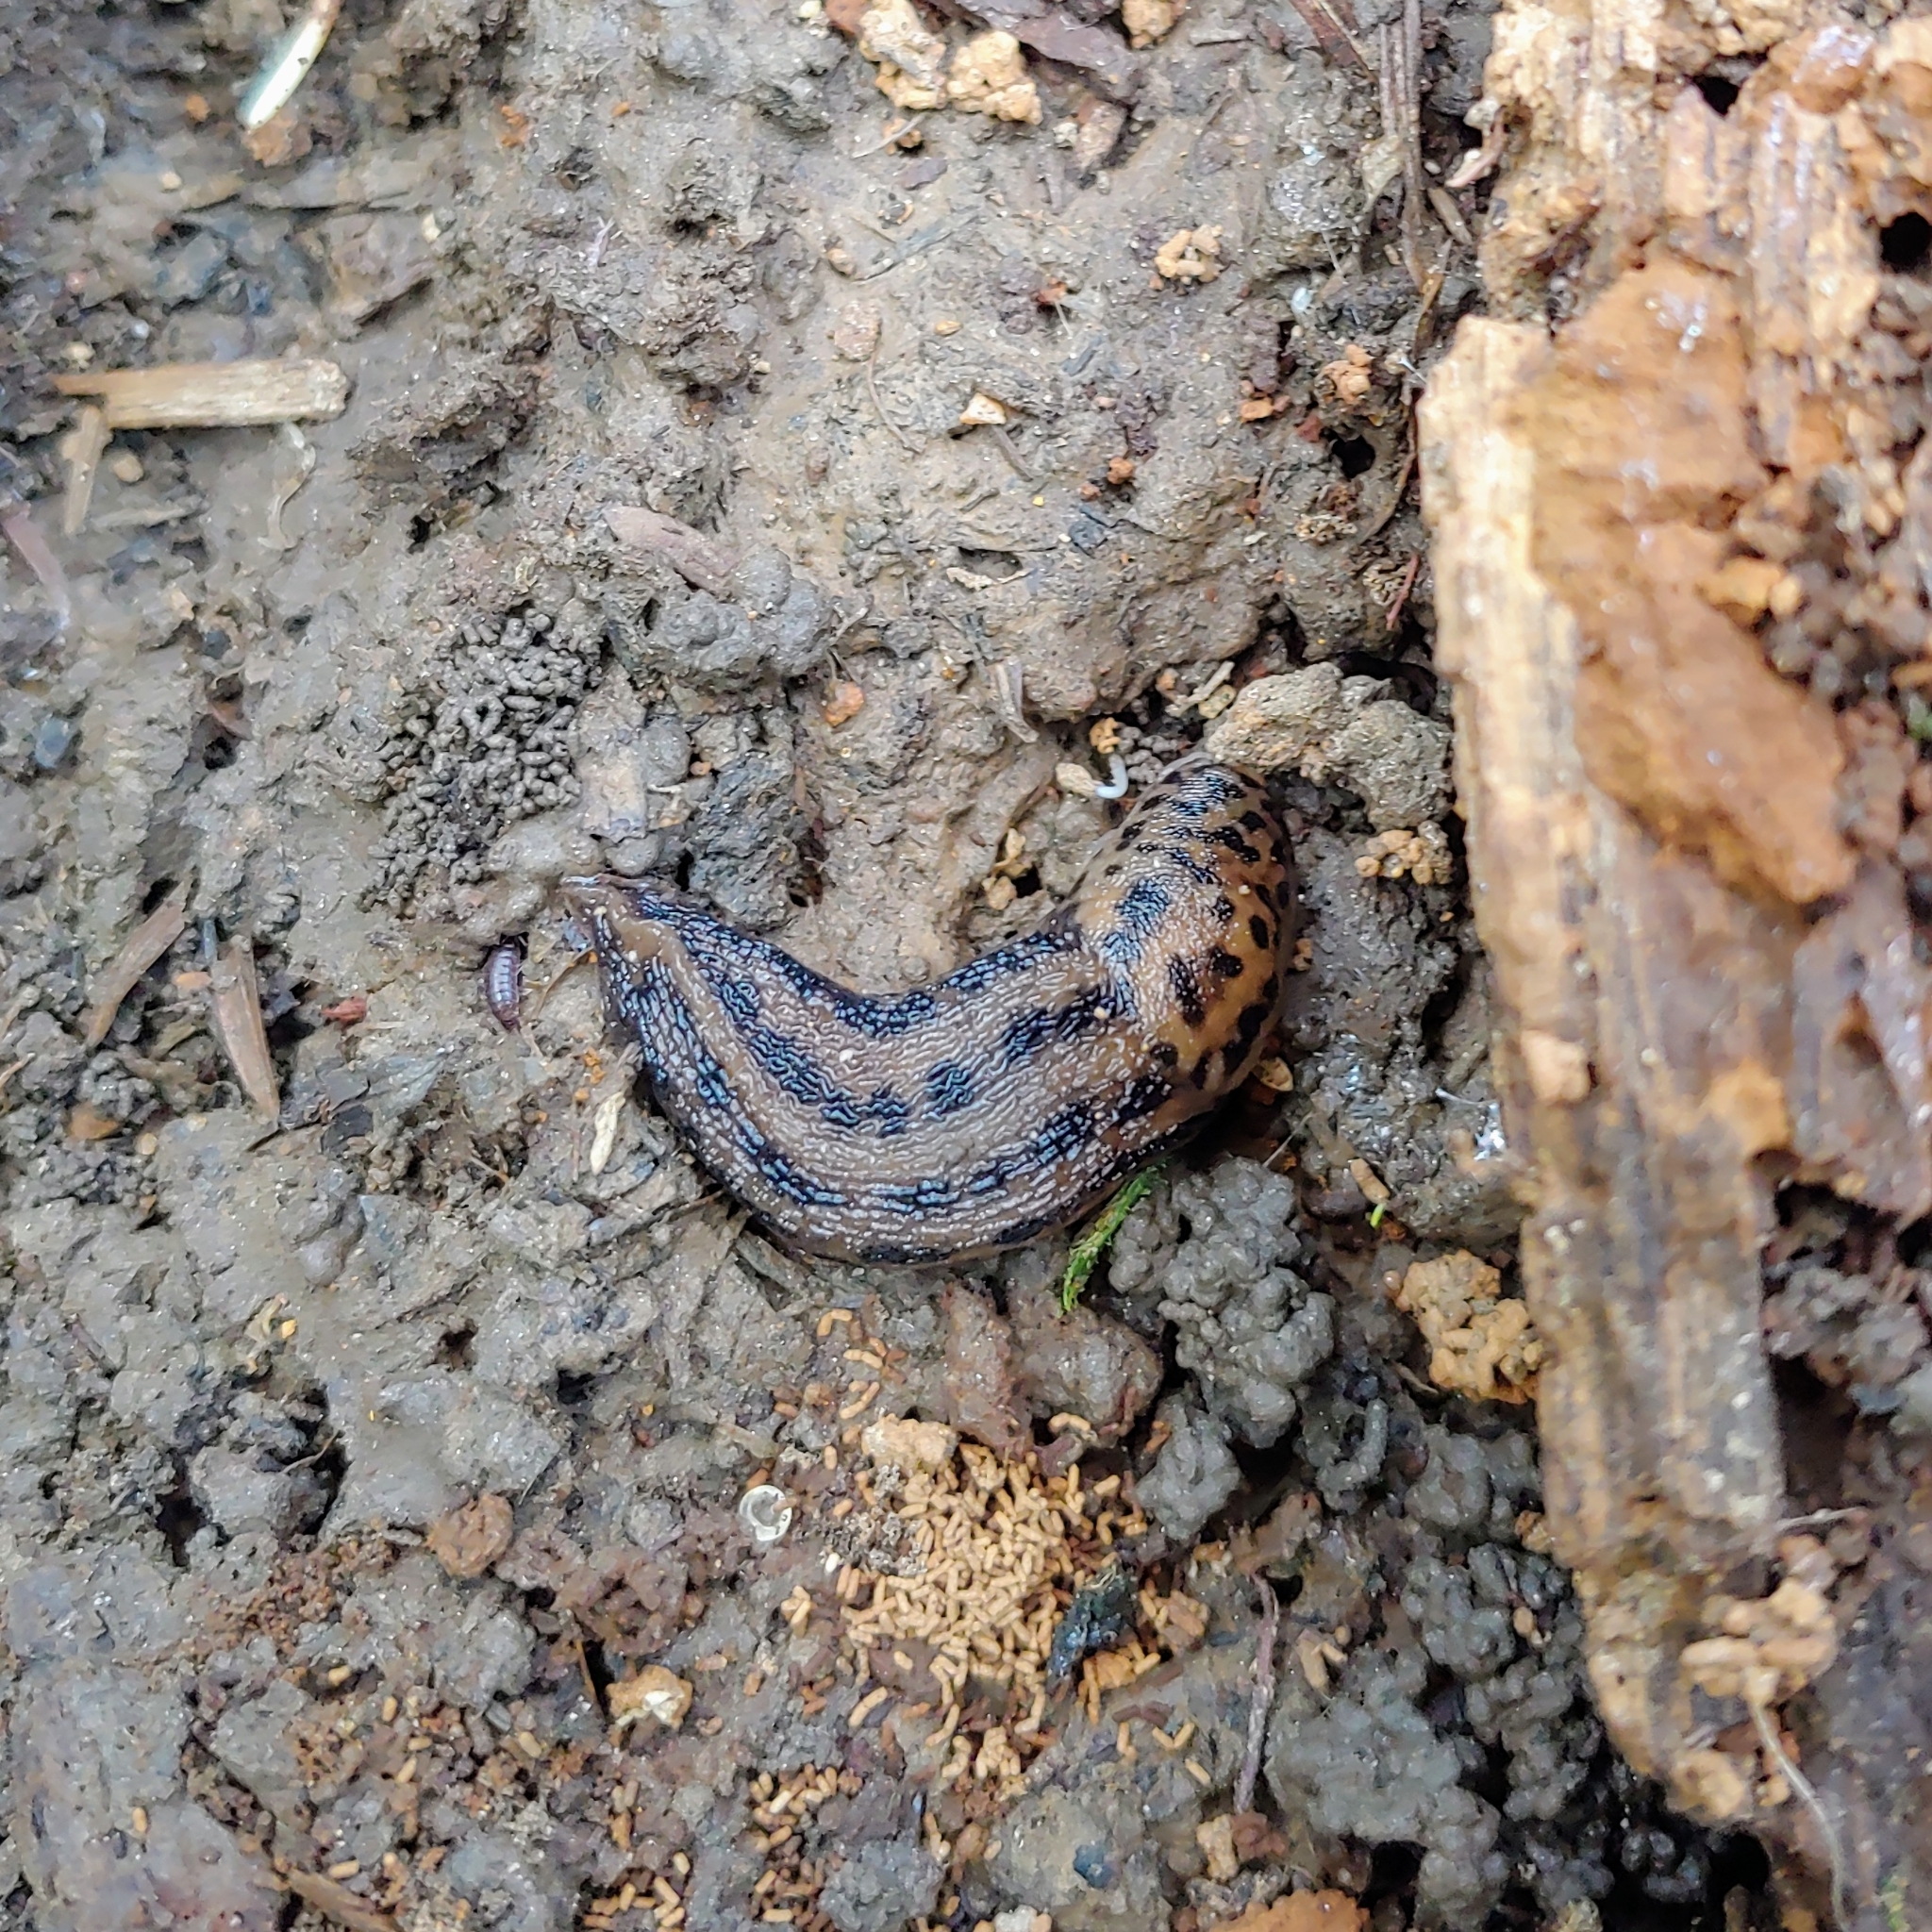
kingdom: Animalia
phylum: Mollusca
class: Gastropoda
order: Stylommatophora
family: Limacidae
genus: Limax
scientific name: Limax maximus
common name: Great grey slug
